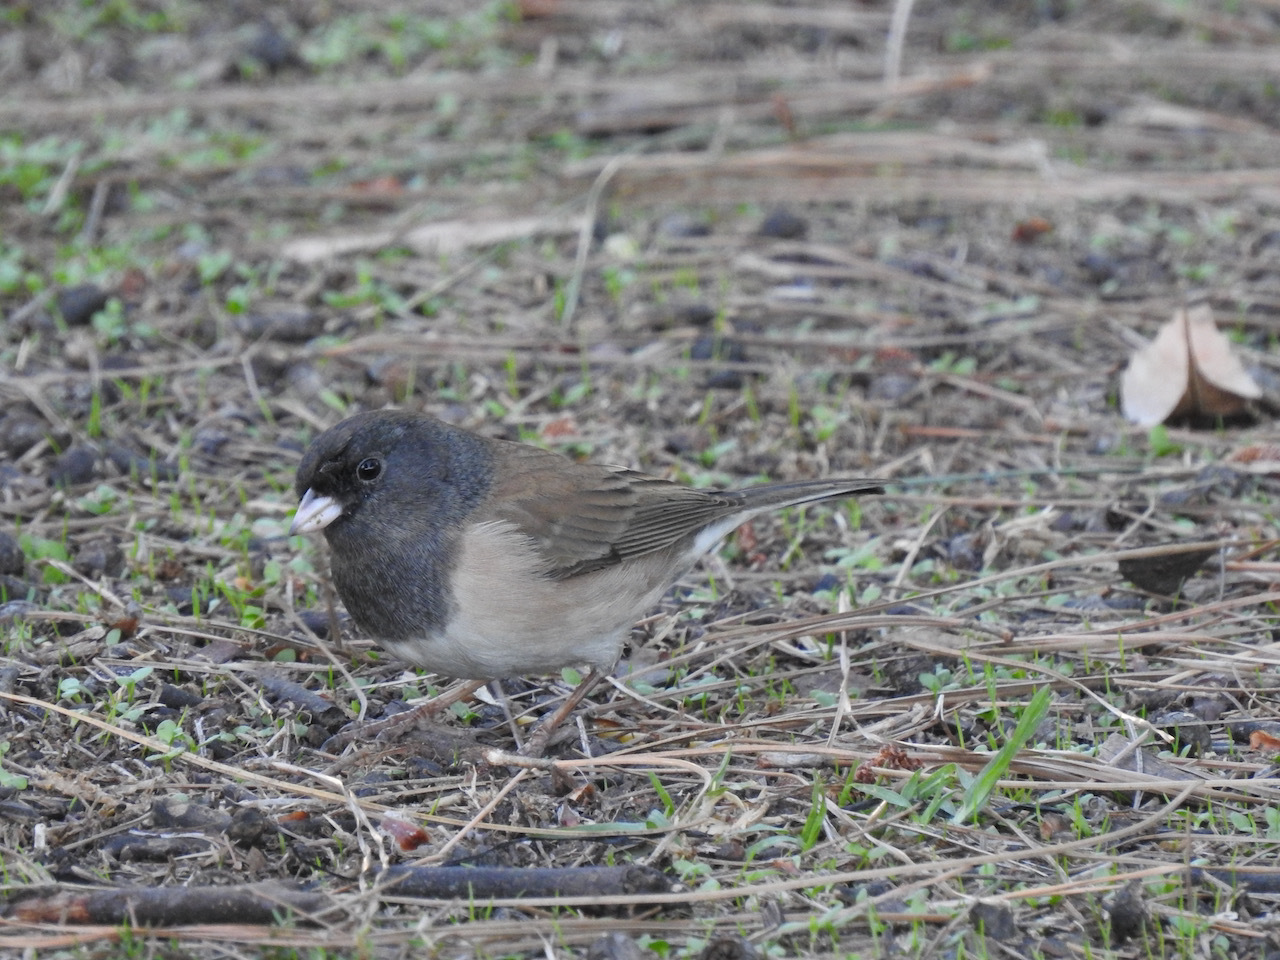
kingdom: Animalia
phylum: Chordata
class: Aves
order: Passeriformes
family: Passerellidae
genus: Junco
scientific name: Junco hyemalis
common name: Dark-eyed junco
